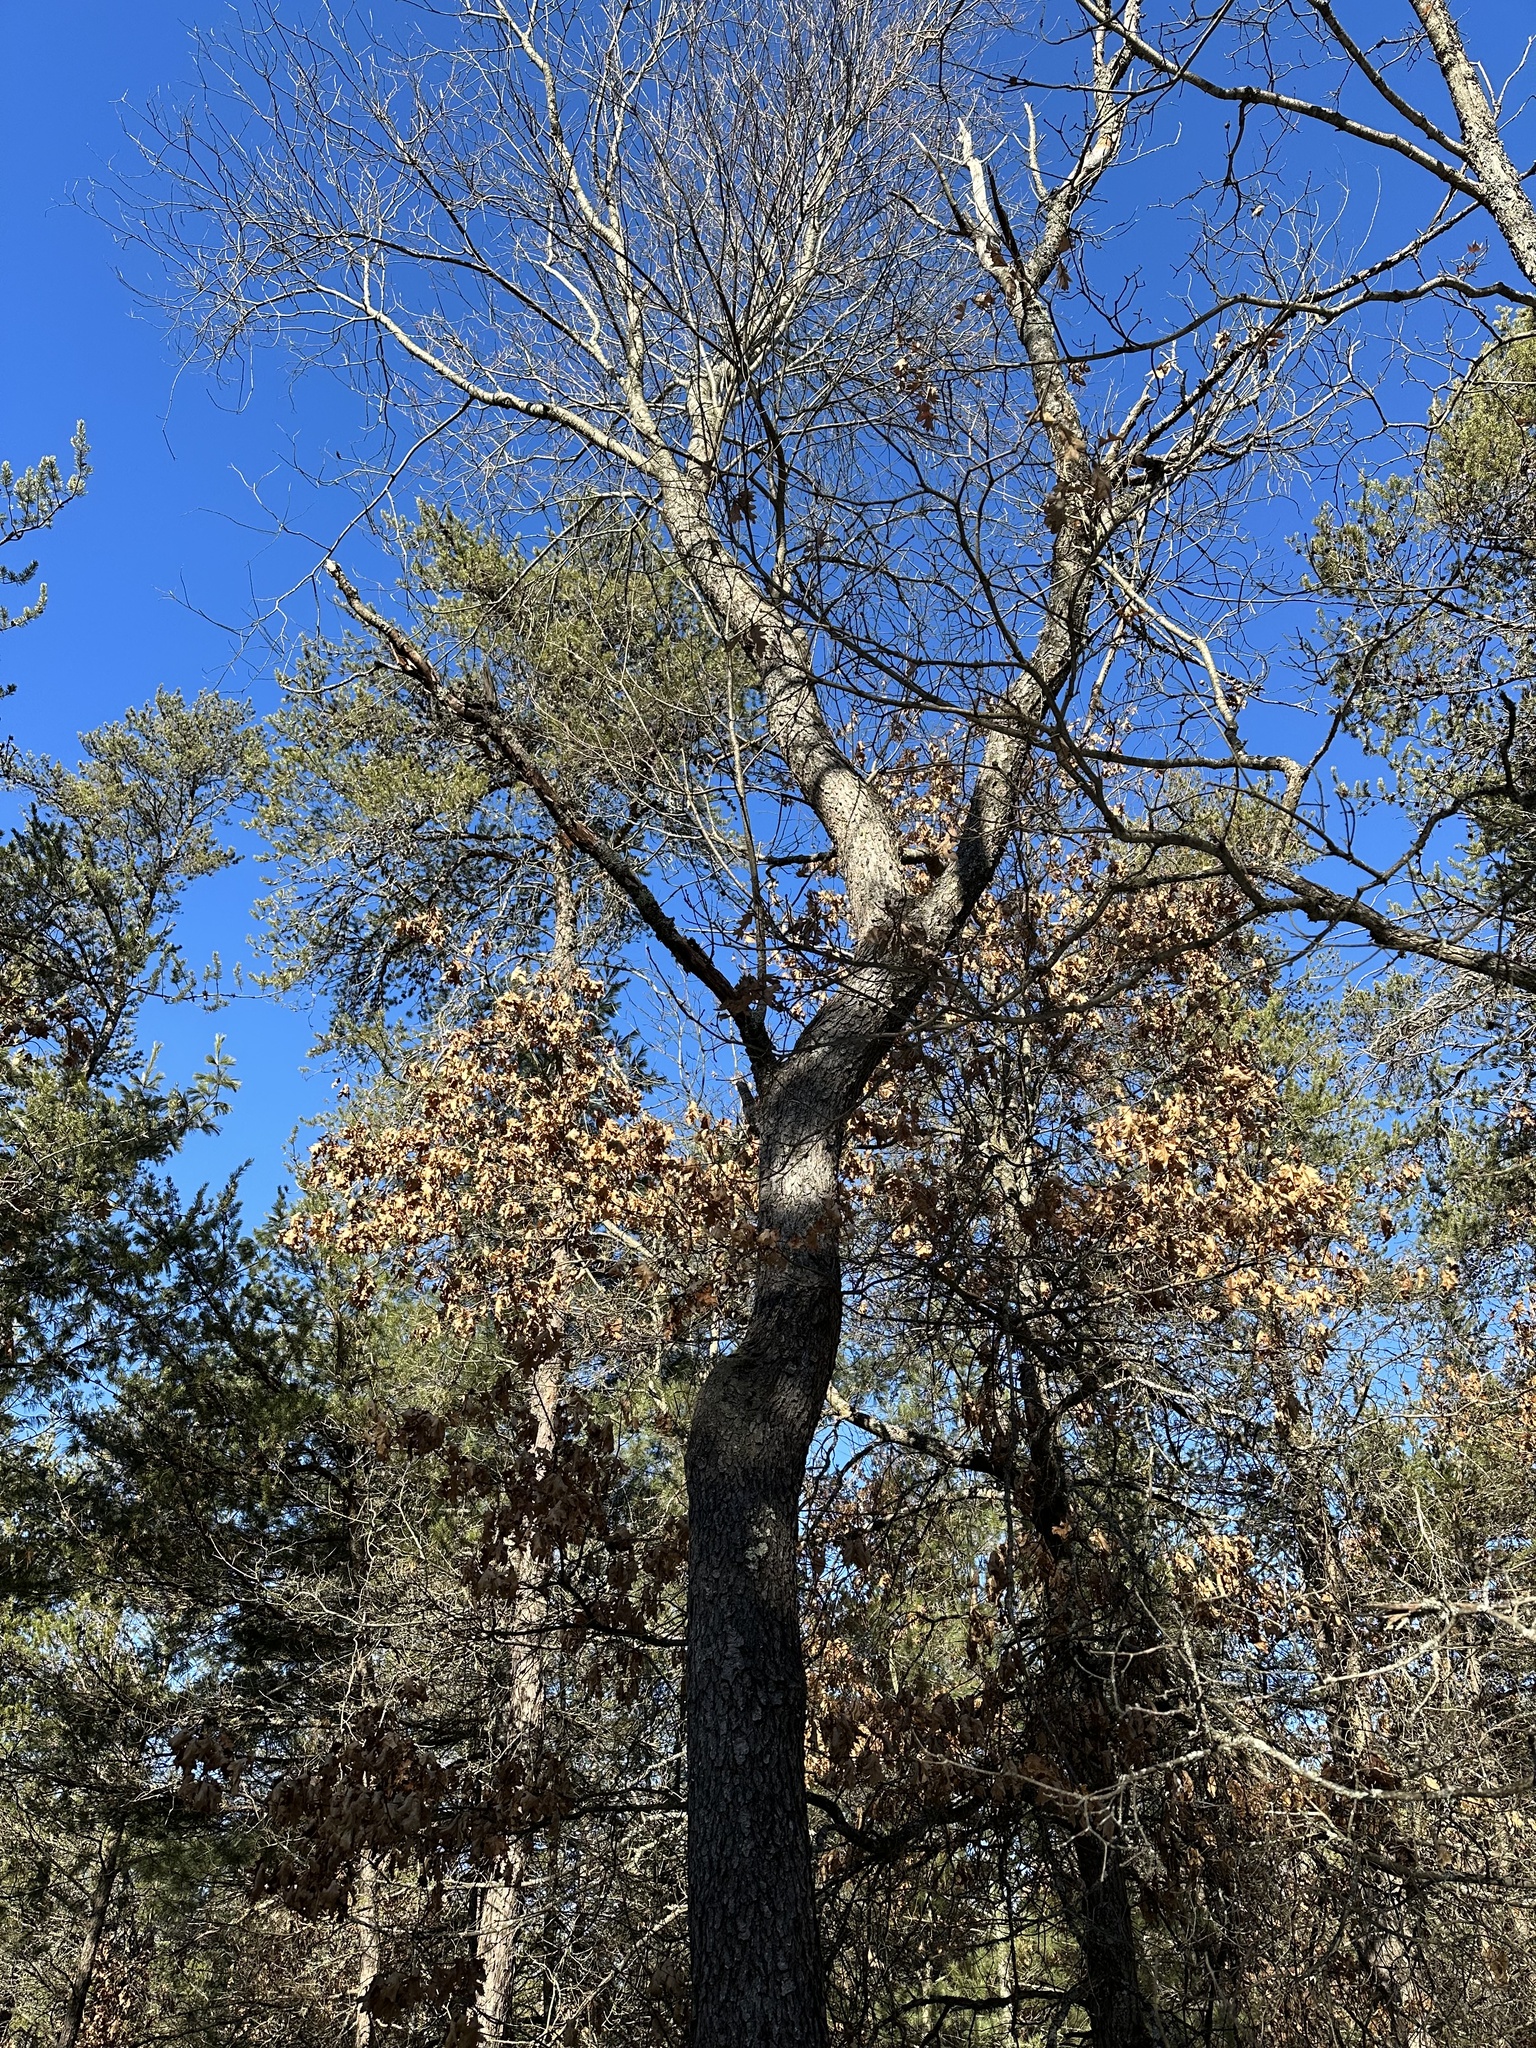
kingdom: Plantae
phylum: Tracheophyta
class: Magnoliopsida
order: Rosales
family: Rosaceae
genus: Prunus
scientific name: Prunus serotina
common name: Black cherry
